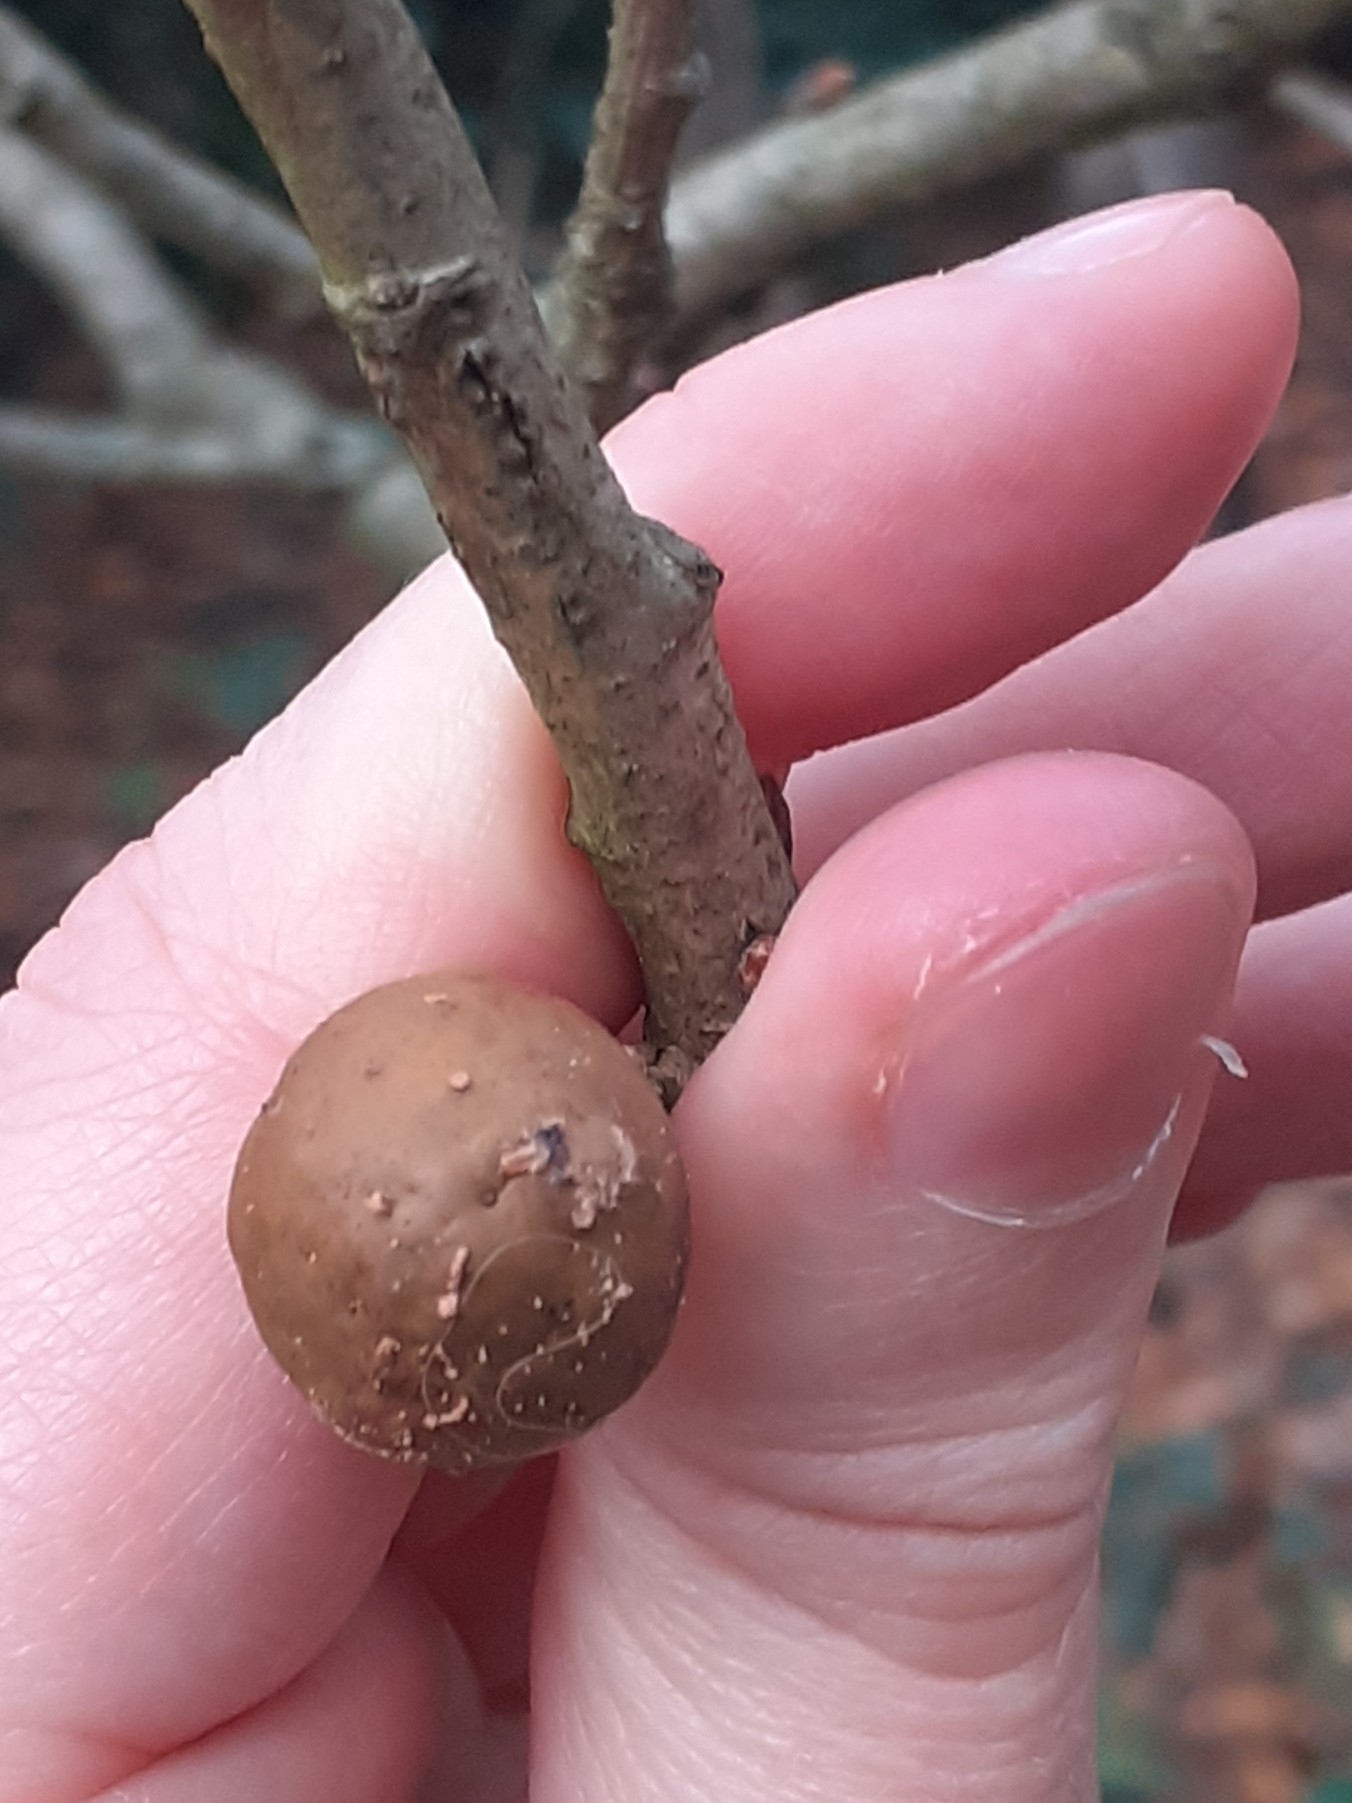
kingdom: Animalia
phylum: Arthropoda
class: Insecta
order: Hymenoptera
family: Cynipidae
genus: Andricus
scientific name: Andricus kollari
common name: Marble gall
